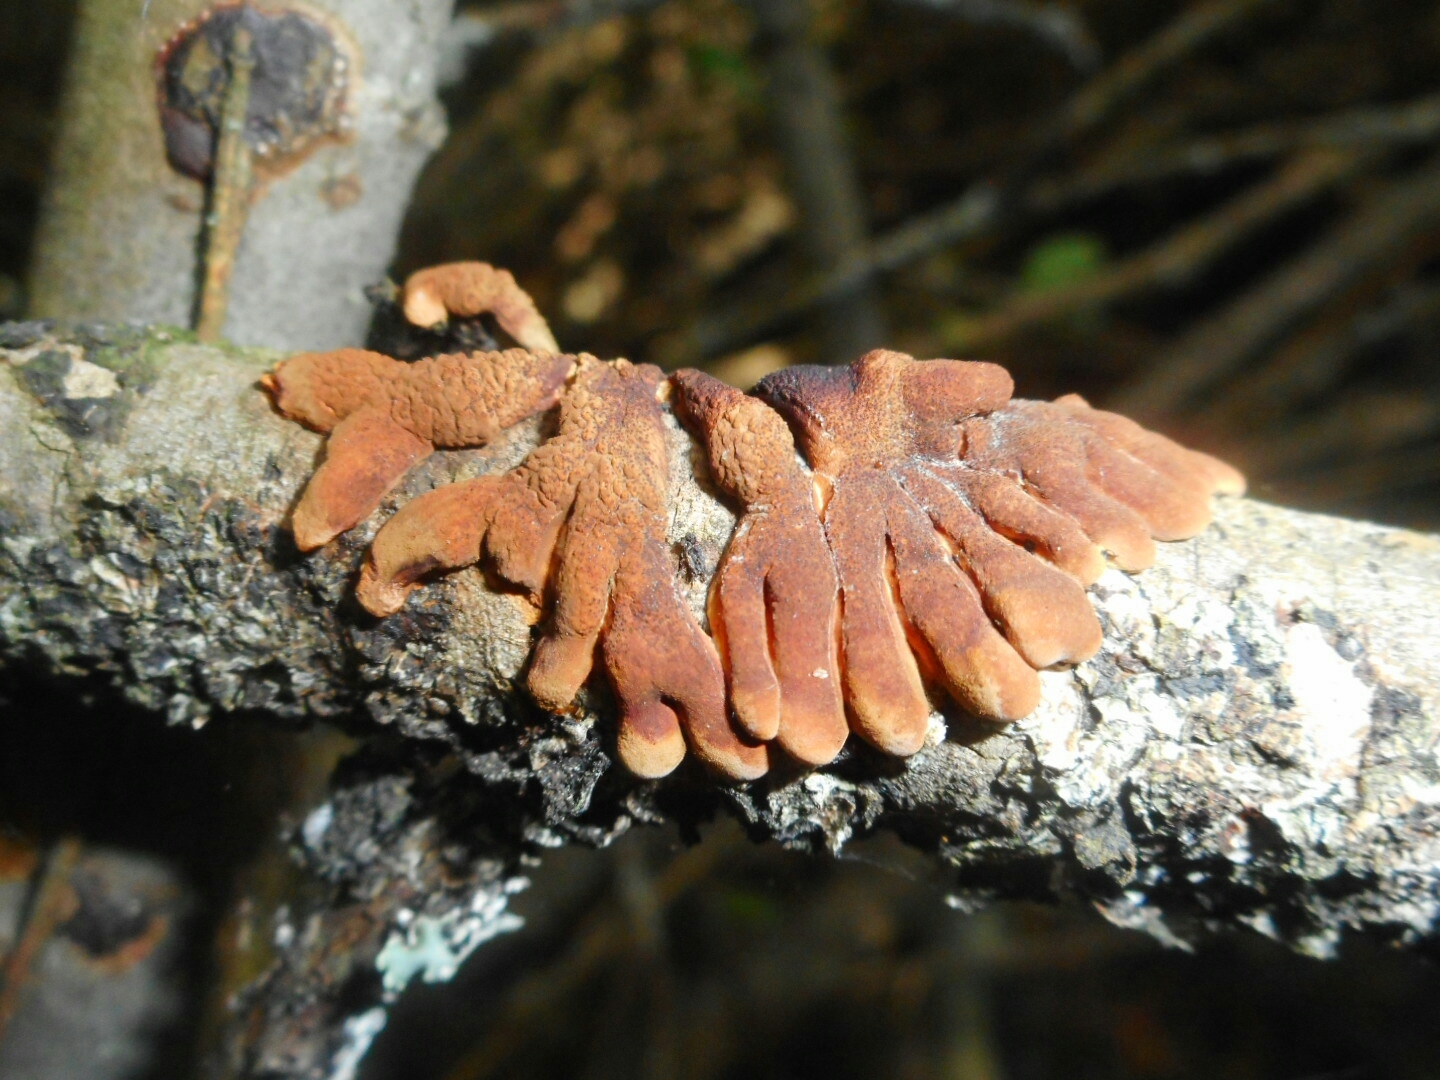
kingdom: Fungi
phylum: Ascomycota
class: Sordariomycetes
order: Hypocreales
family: Hypocreaceae
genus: Hypocreopsis
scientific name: Hypocreopsis lichenoides
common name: Willow gloves
